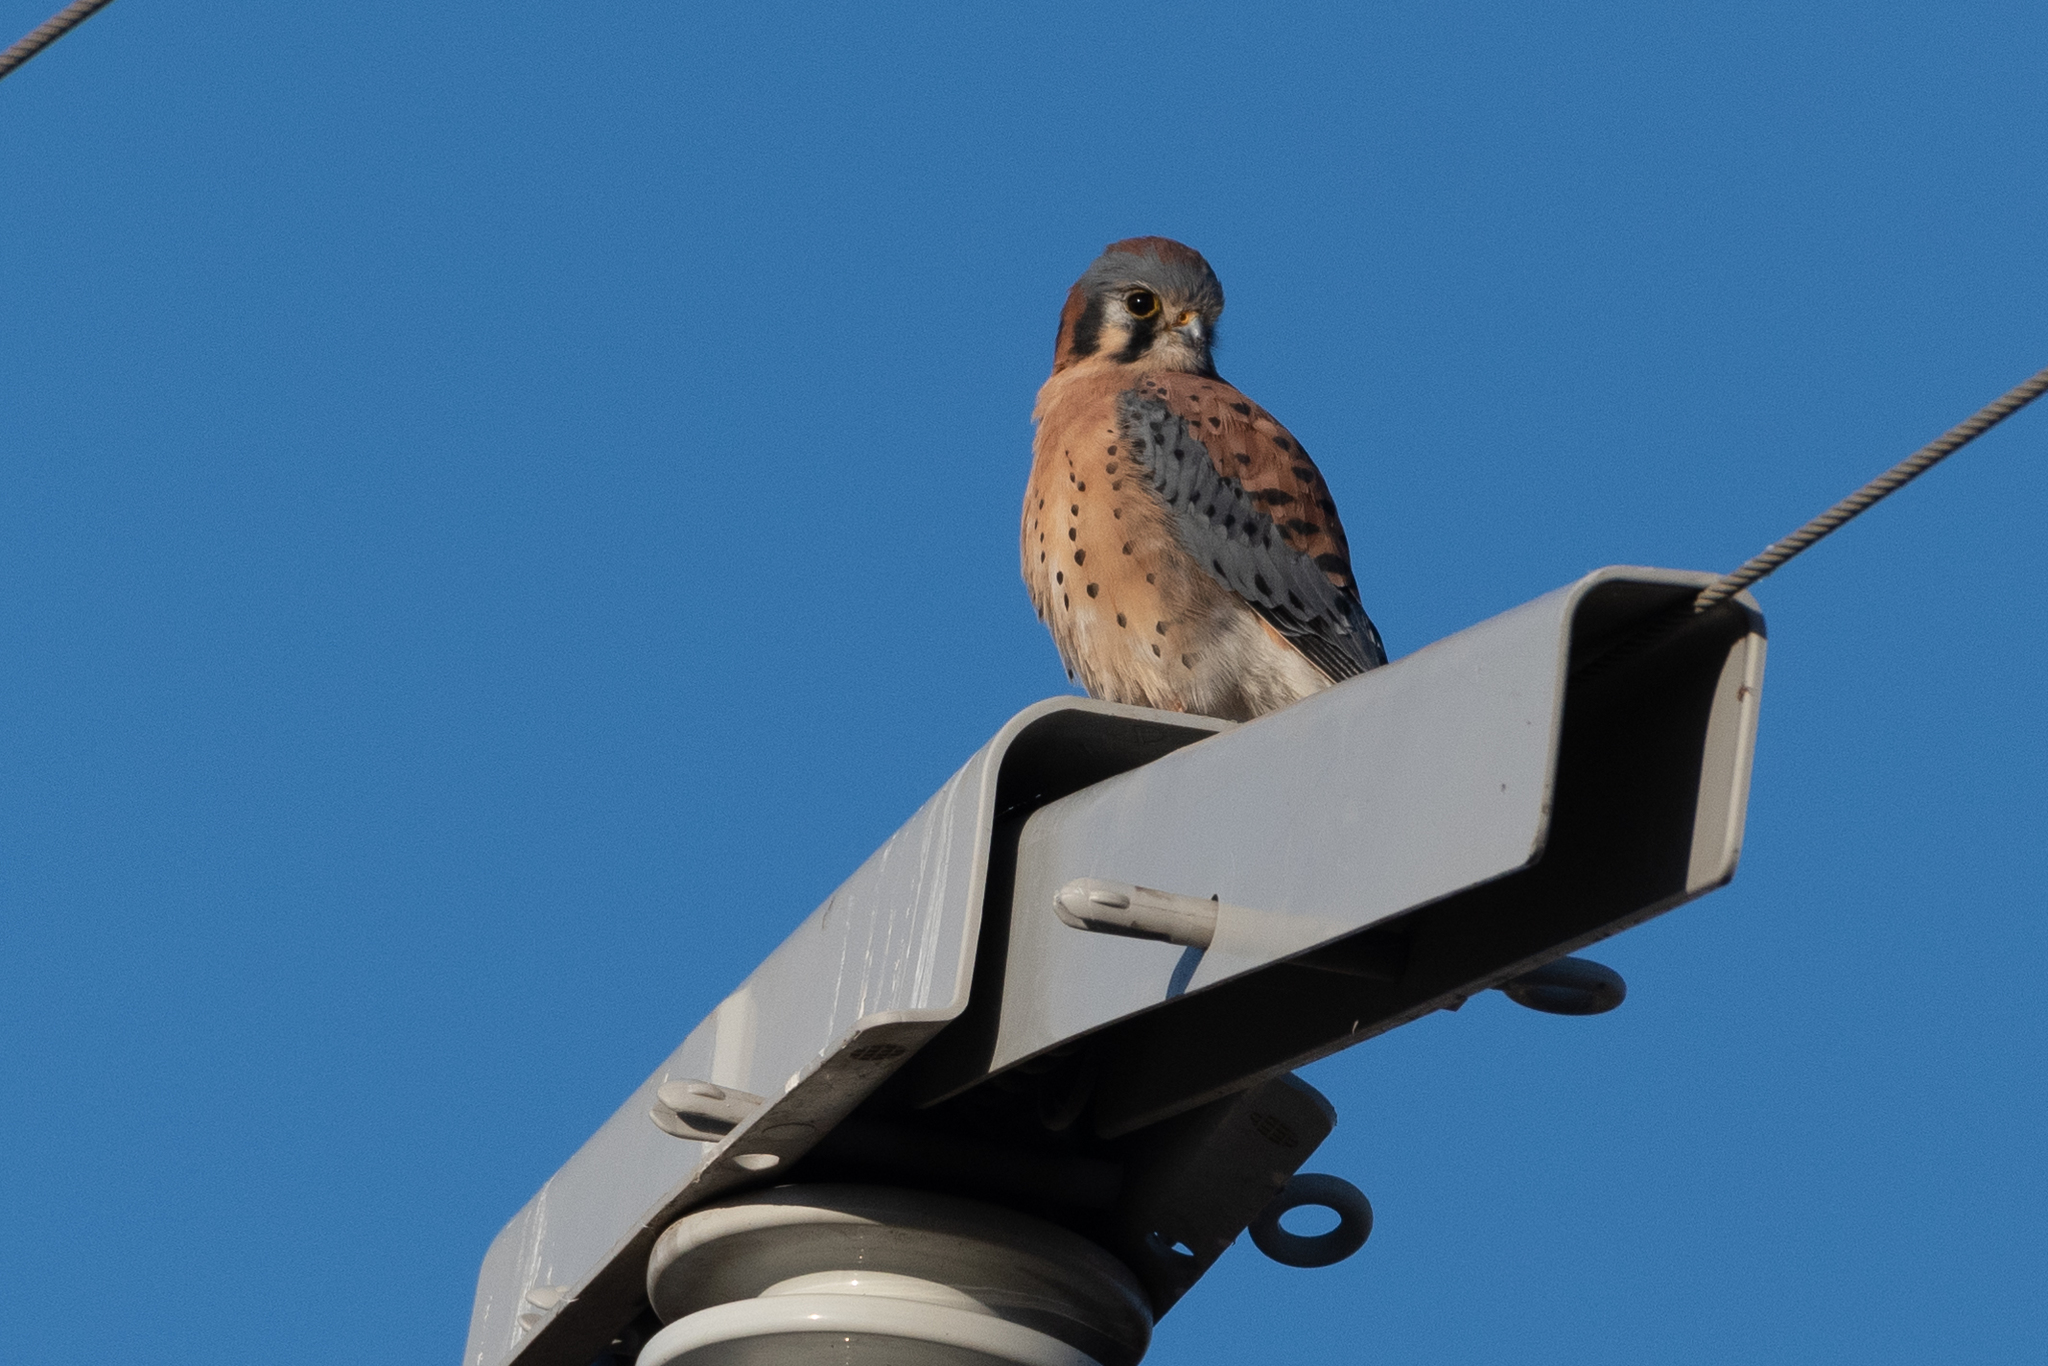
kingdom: Animalia
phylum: Chordata
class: Aves
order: Falconiformes
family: Falconidae
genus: Falco
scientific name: Falco sparverius
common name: American kestrel
